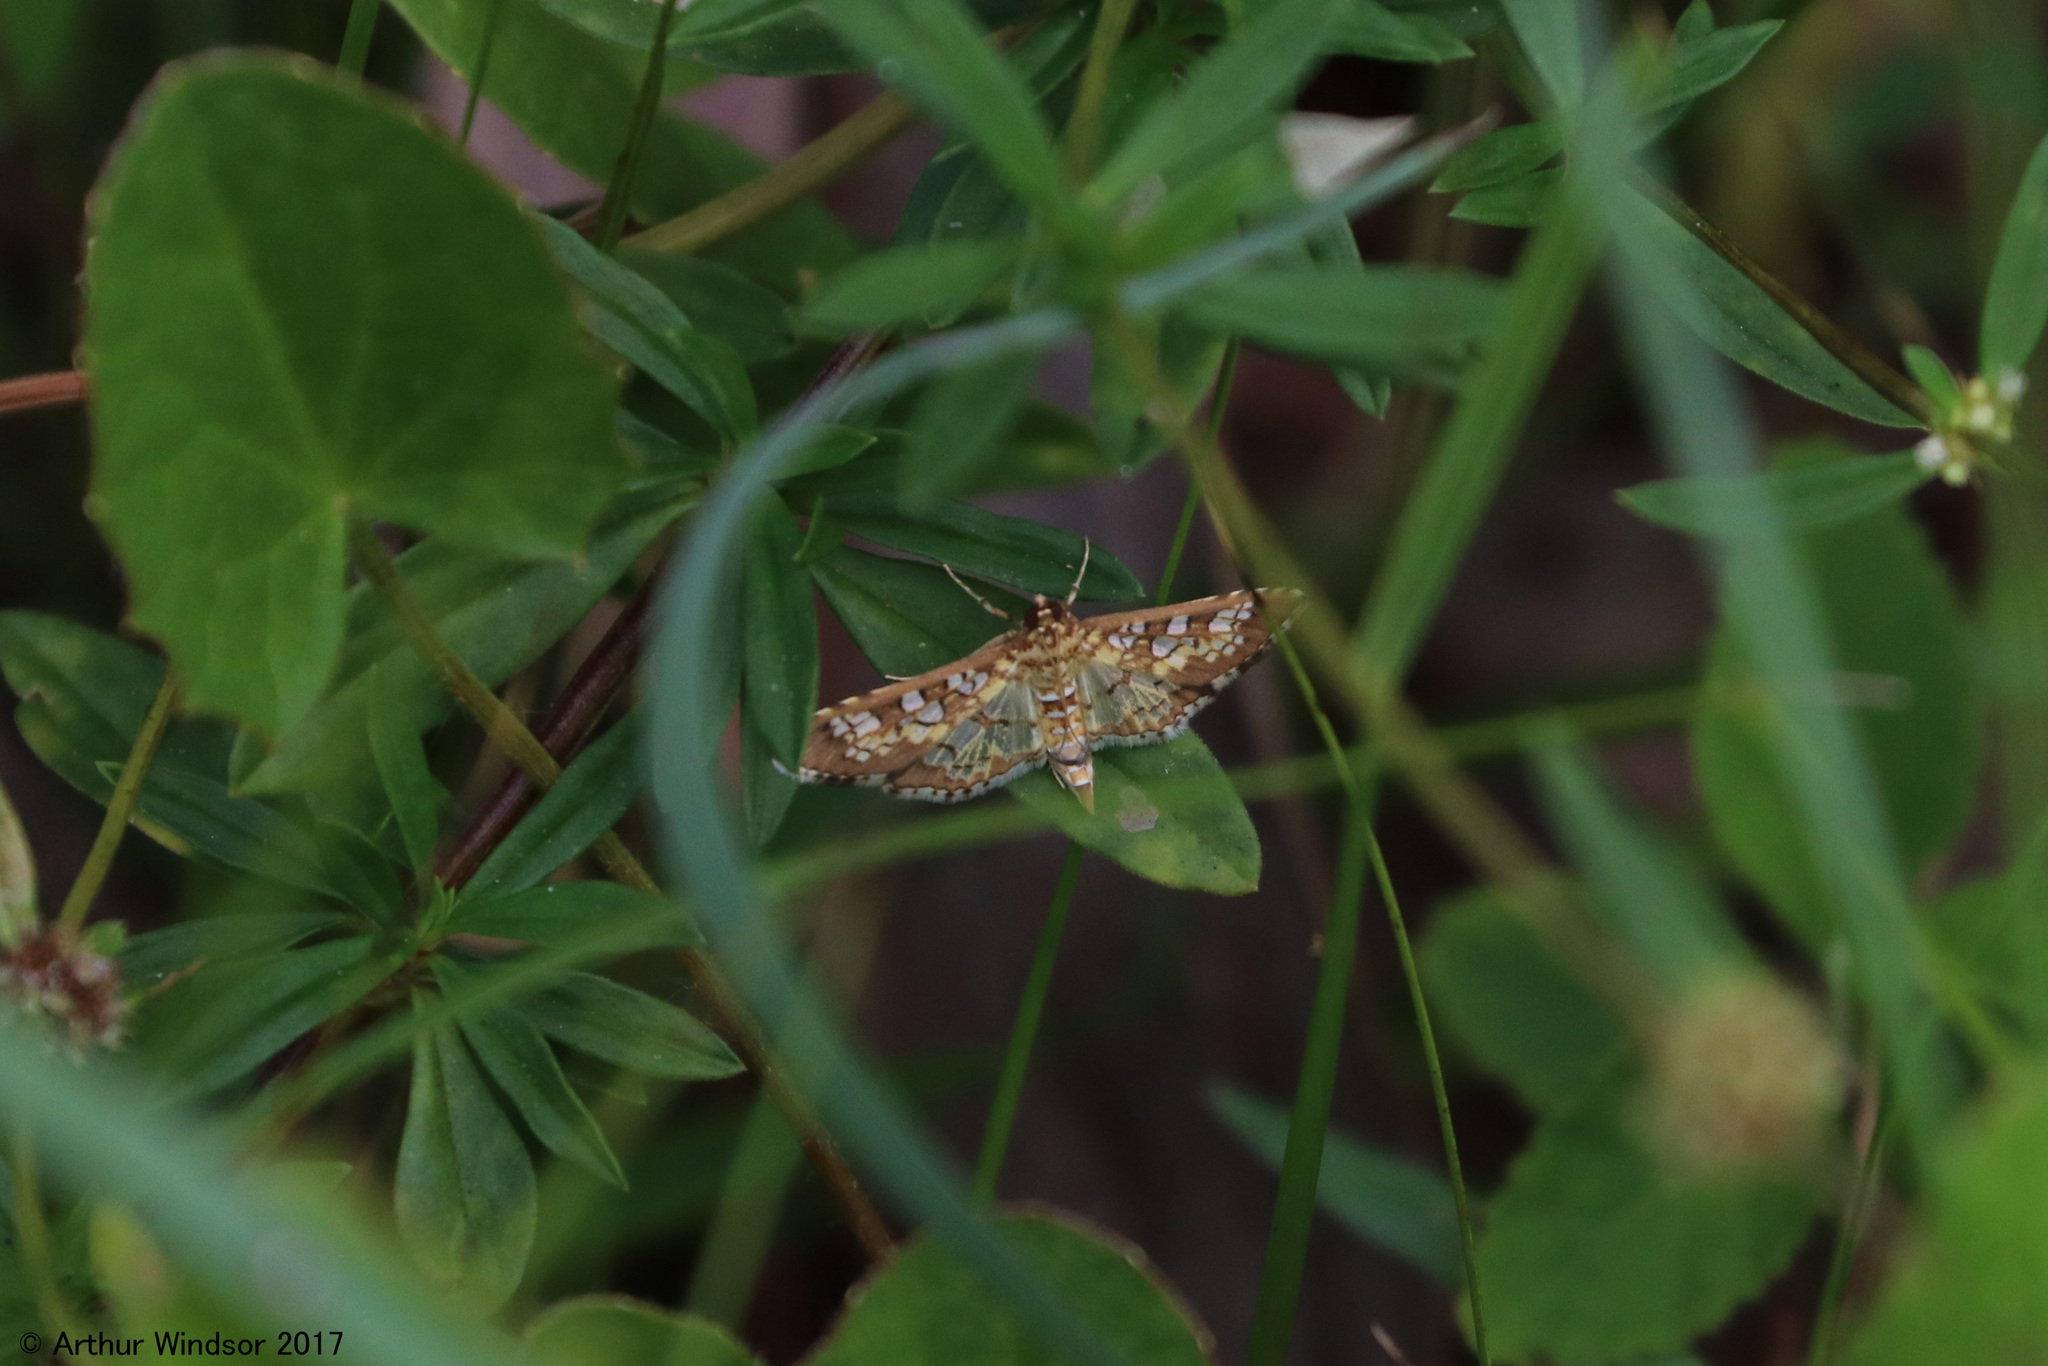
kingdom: Animalia
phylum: Arthropoda
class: Insecta
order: Lepidoptera
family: Crambidae
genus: Samea
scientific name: Samea ecclesialis
